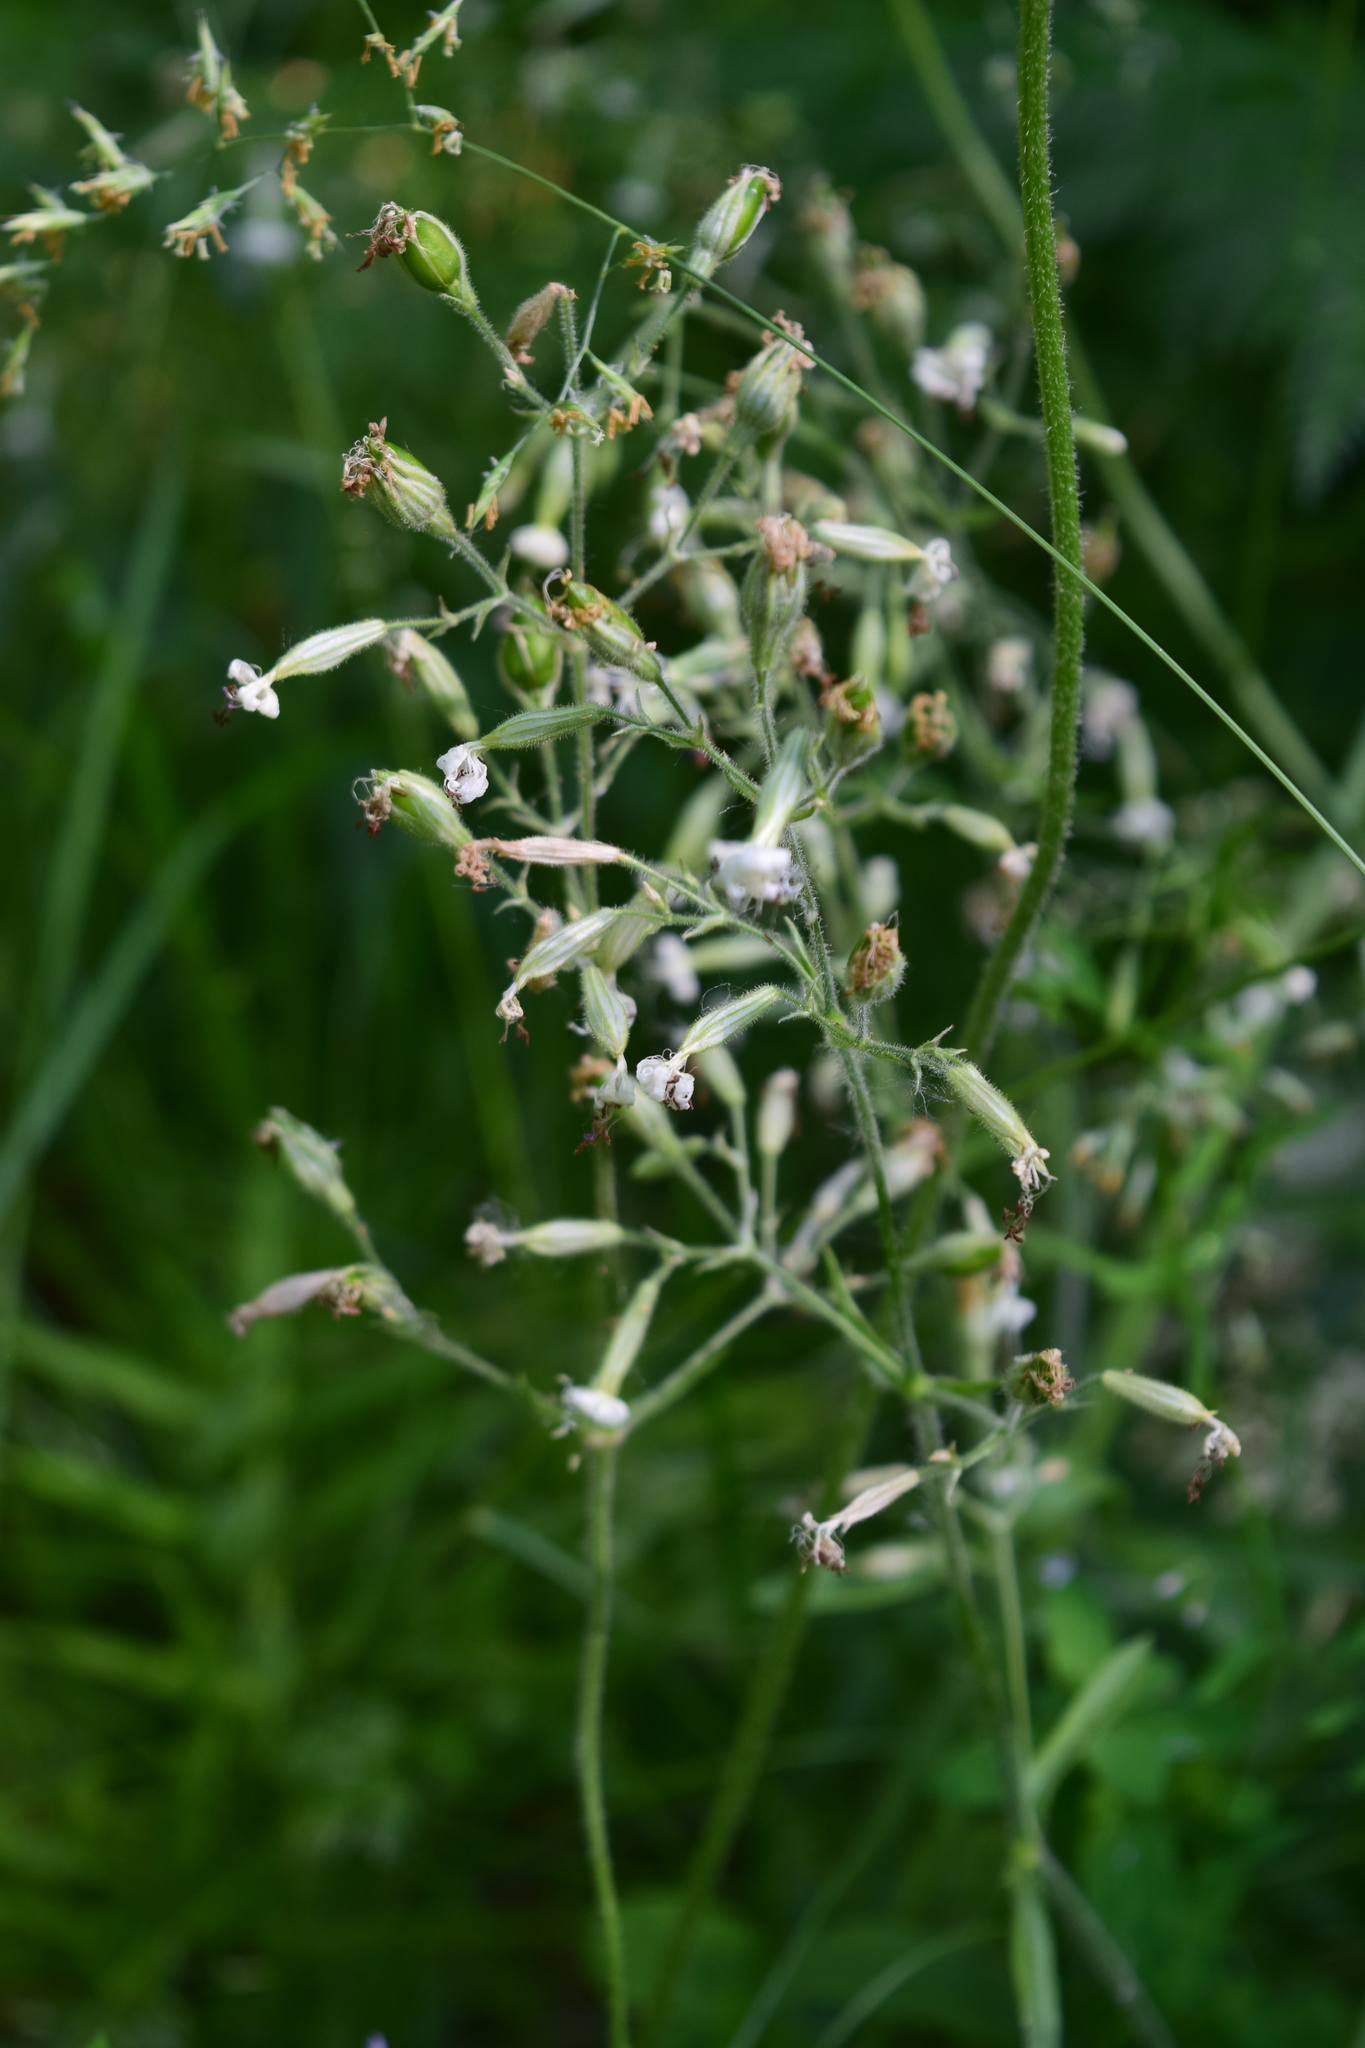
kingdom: Plantae
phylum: Tracheophyta
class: Magnoliopsida
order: Caryophyllales
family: Caryophyllaceae
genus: Silene
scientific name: Silene nutans
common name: Nottingham catchfly
